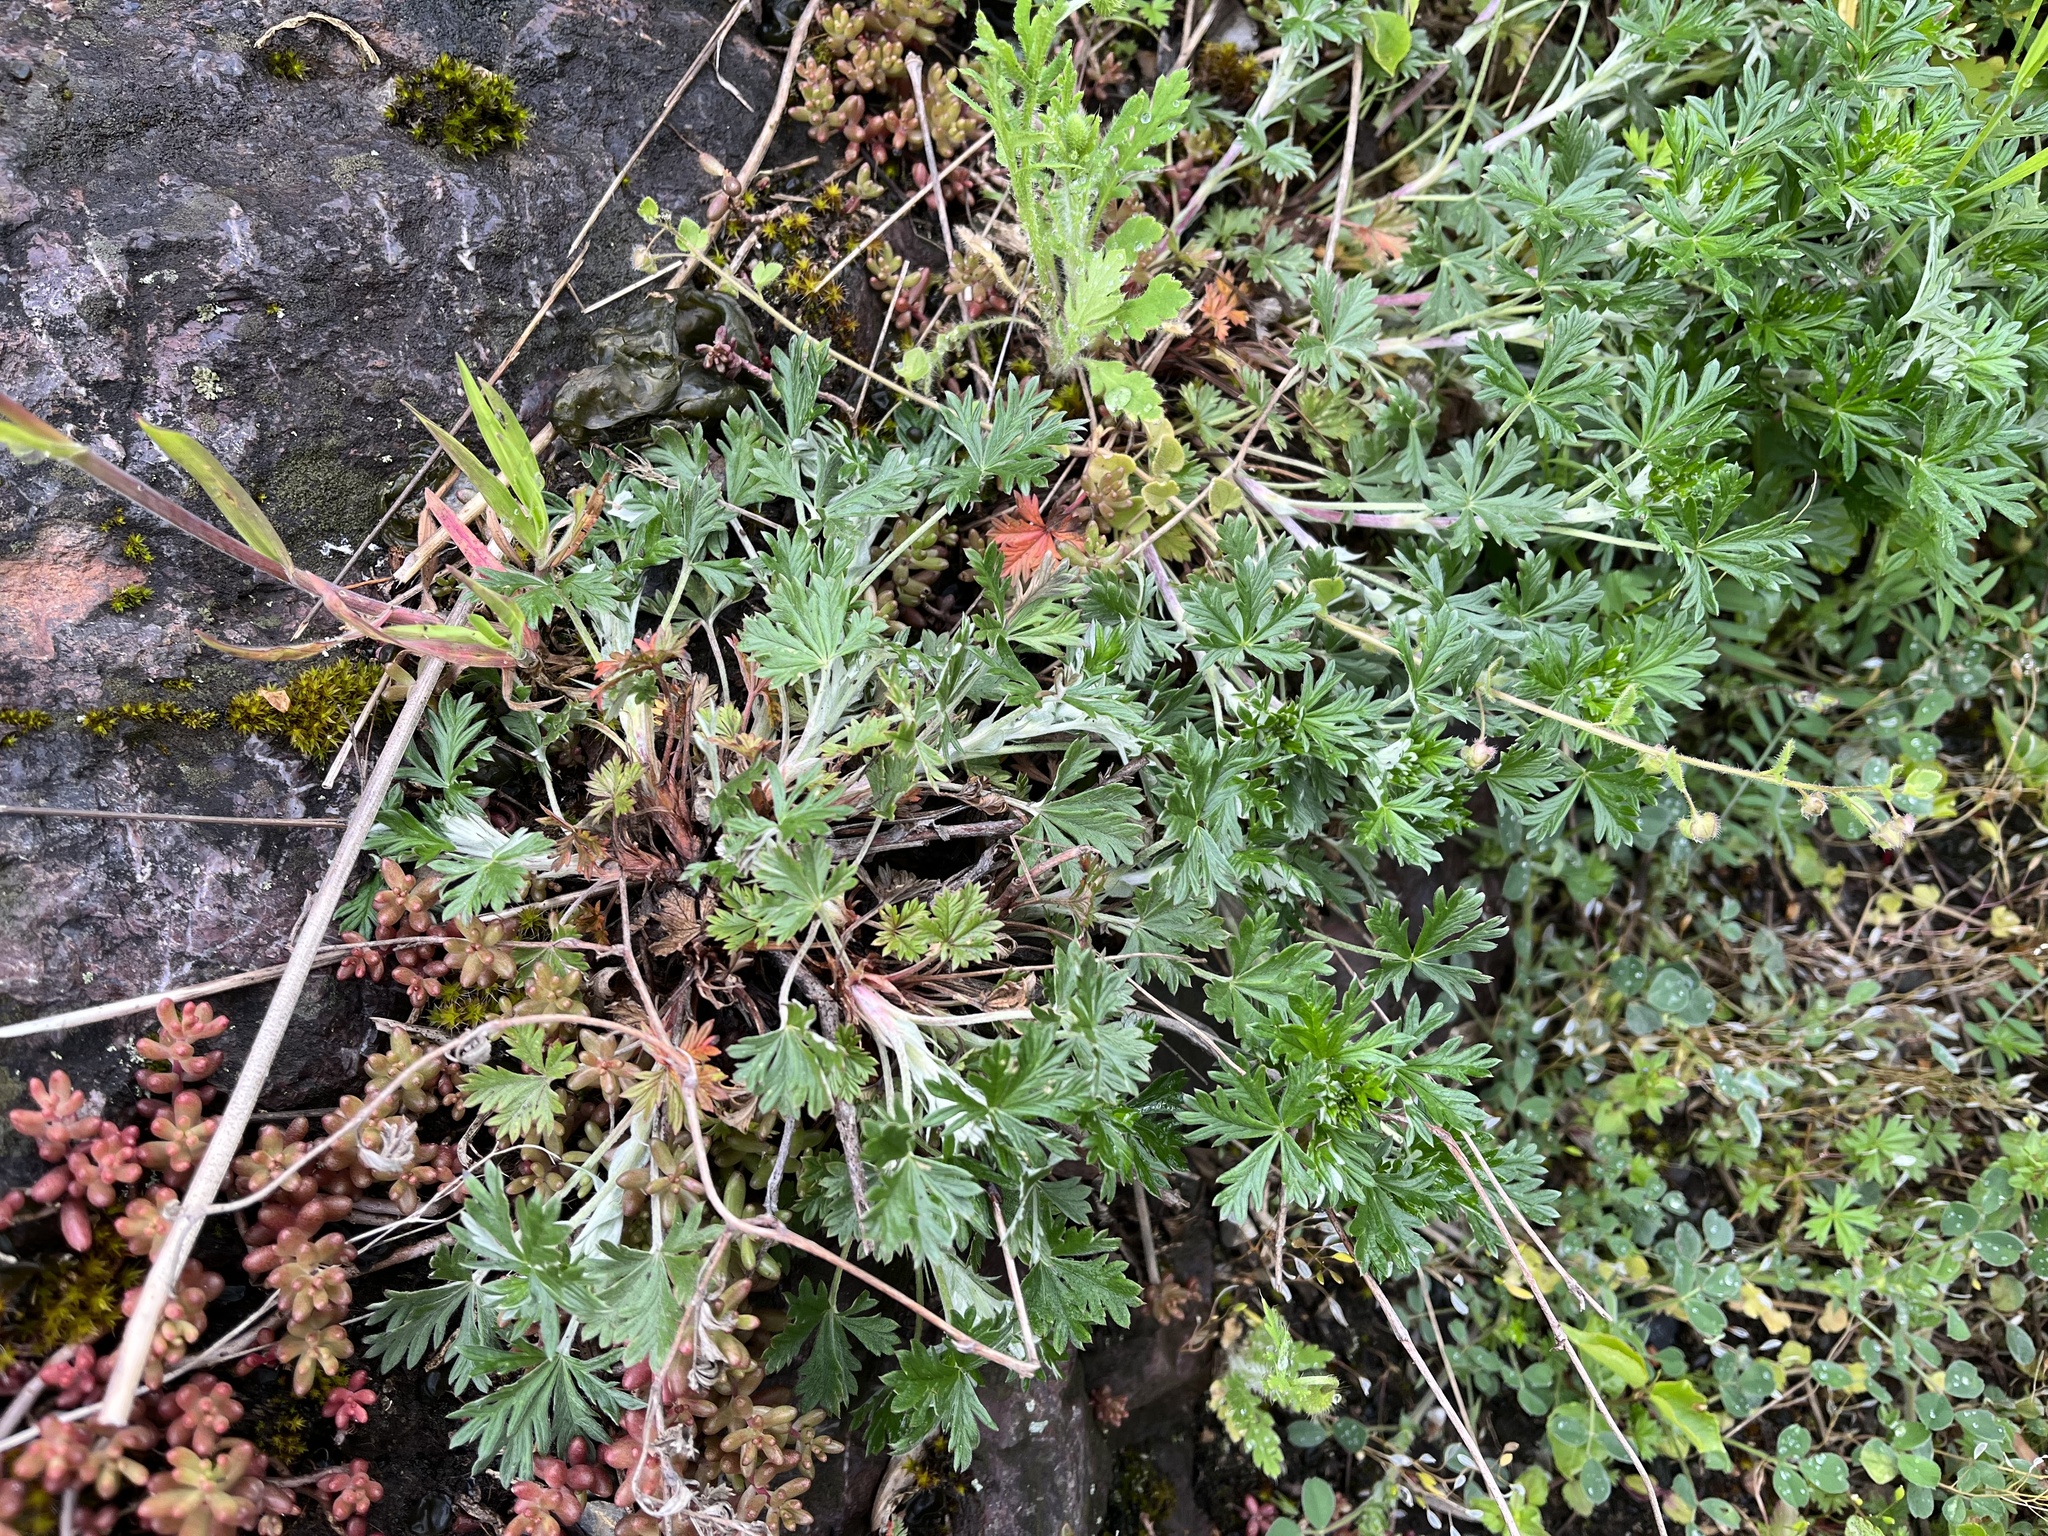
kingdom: Plantae
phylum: Tracheophyta
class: Magnoliopsida
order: Rosales
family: Rosaceae
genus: Potentilla
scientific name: Potentilla argentea
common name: Hoary cinquefoil
